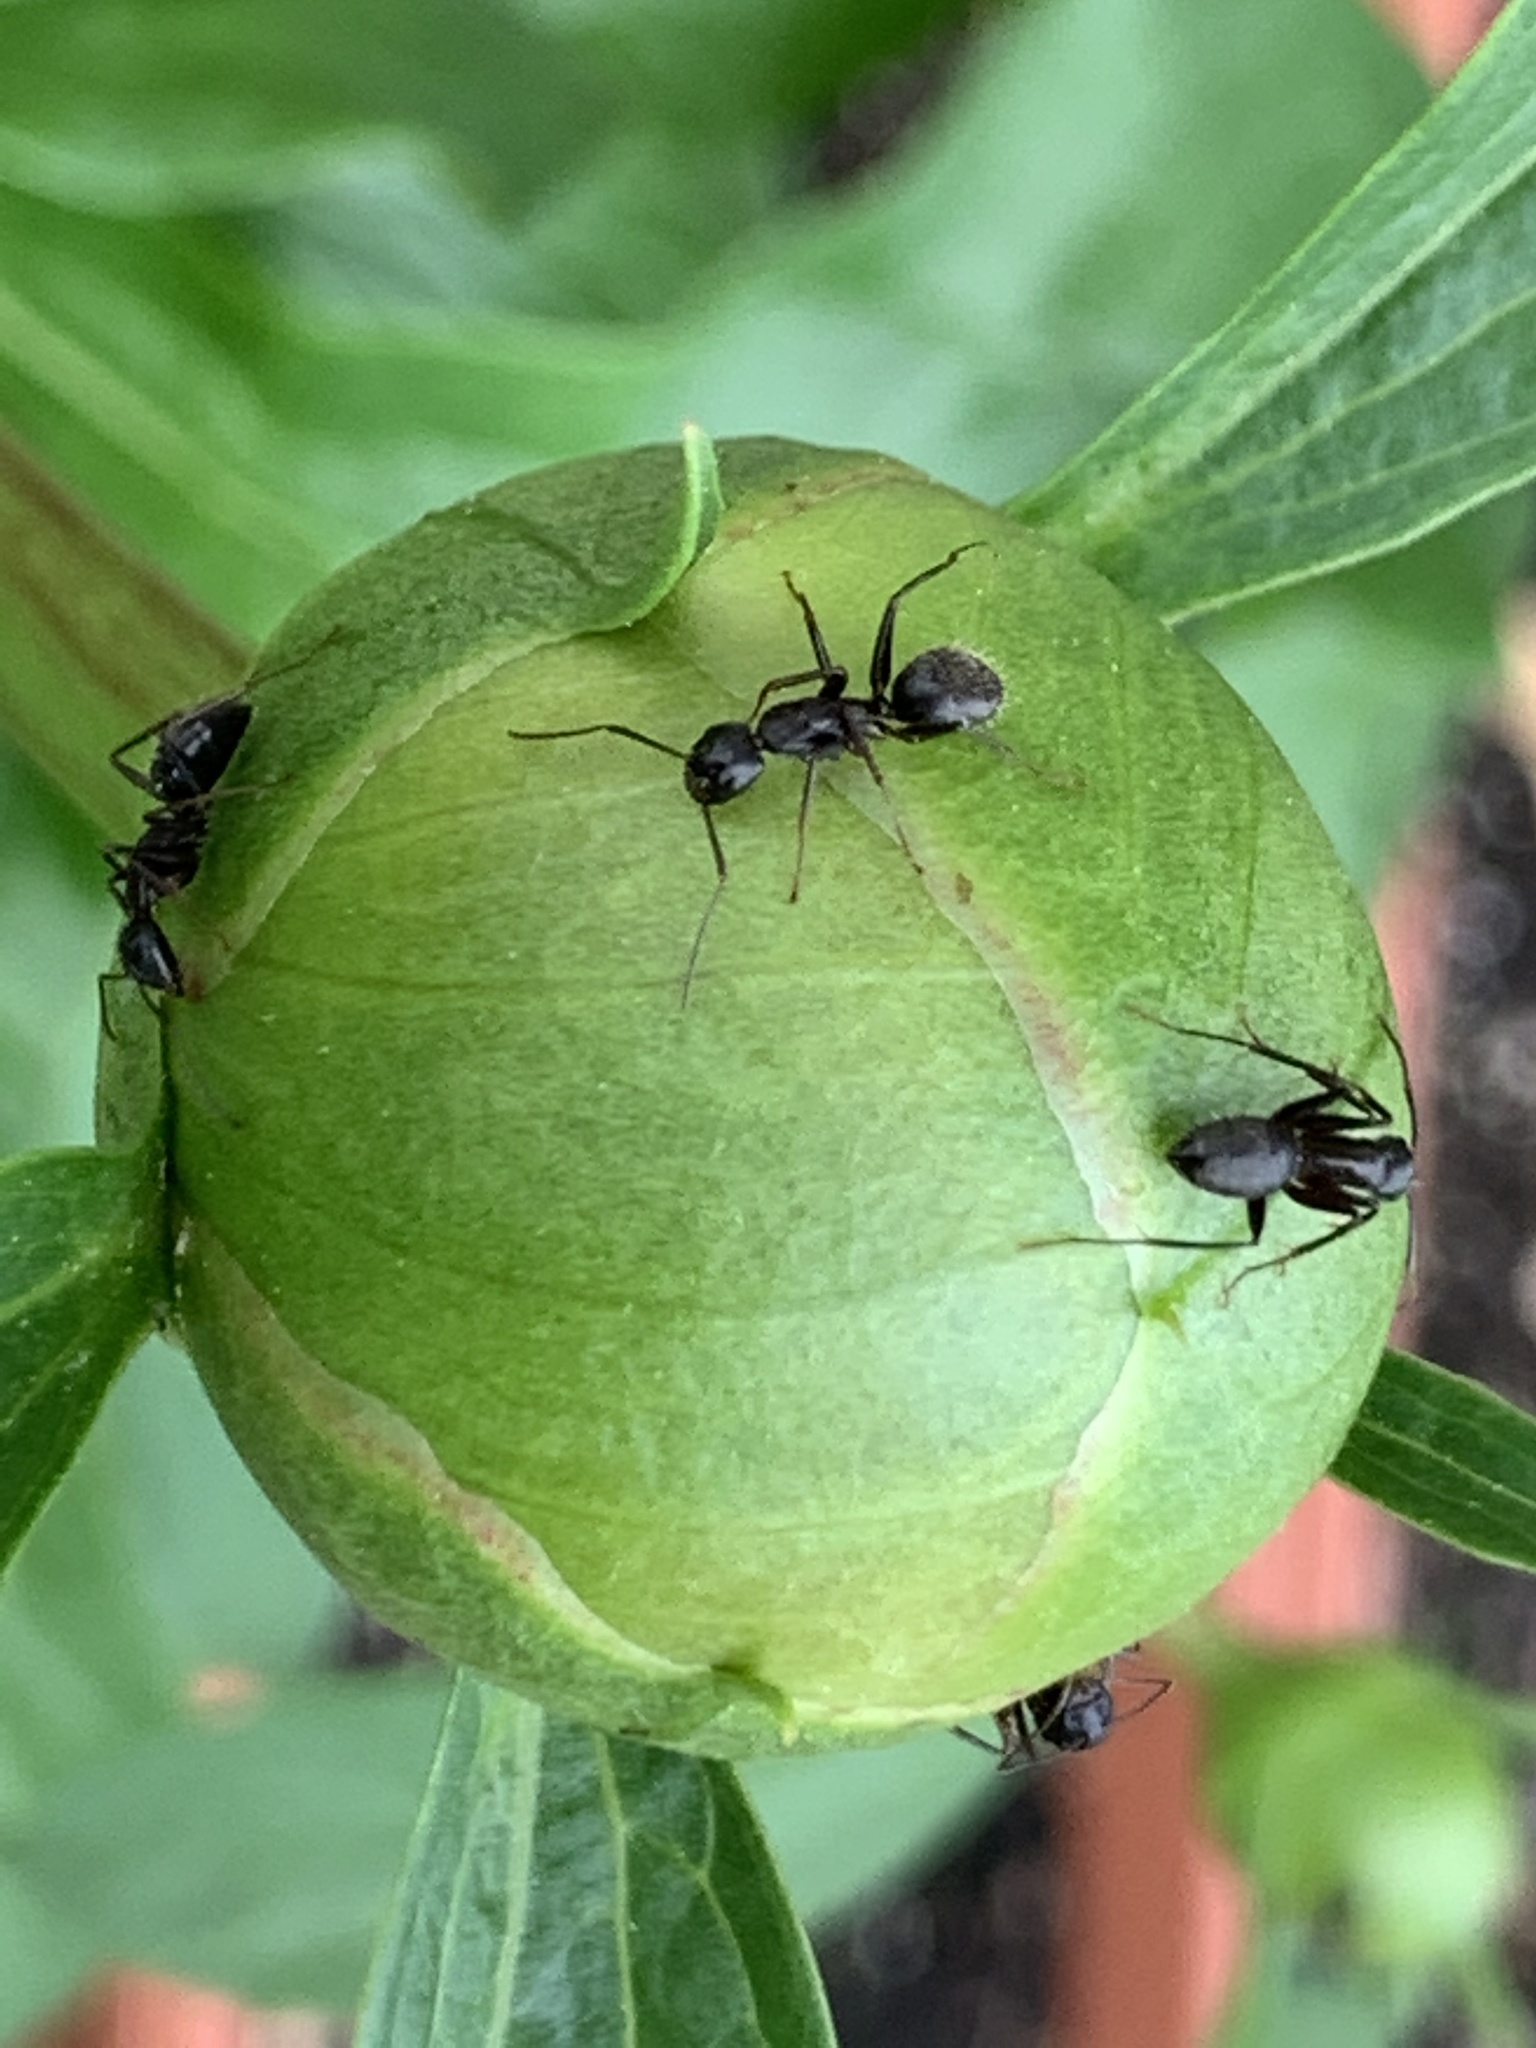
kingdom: Animalia
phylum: Arthropoda
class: Insecta
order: Hymenoptera
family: Formicidae
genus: Camponotus
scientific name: Camponotus pennsylvanicus
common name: Black carpenter ant
